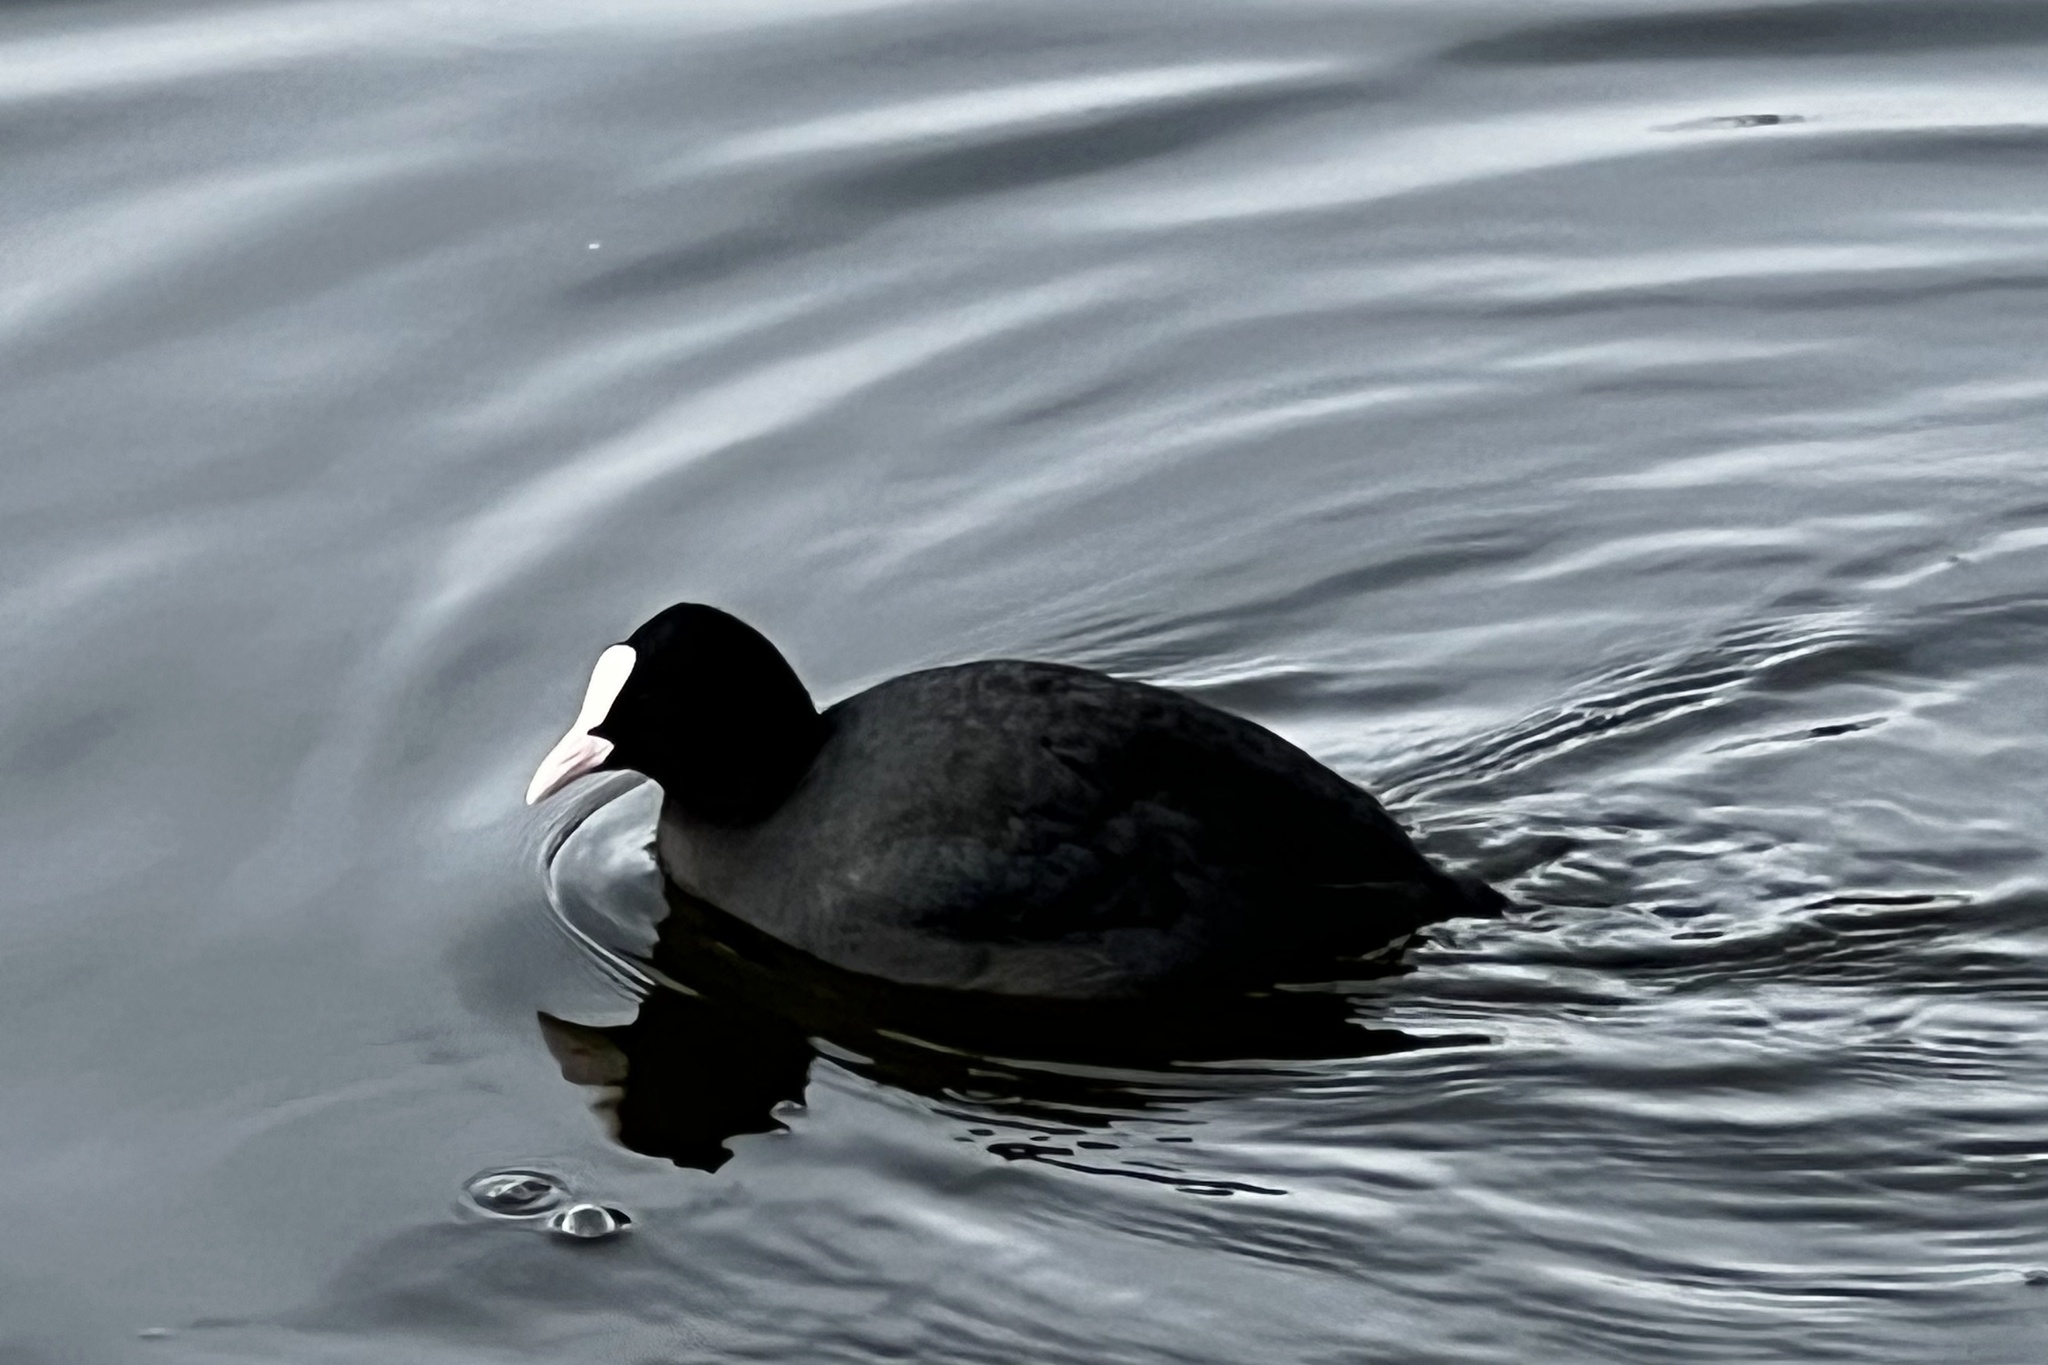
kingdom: Animalia
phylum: Chordata
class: Aves
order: Gruiformes
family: Rallidae
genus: Fulica
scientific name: Fulica atra
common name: Eurasian coot
